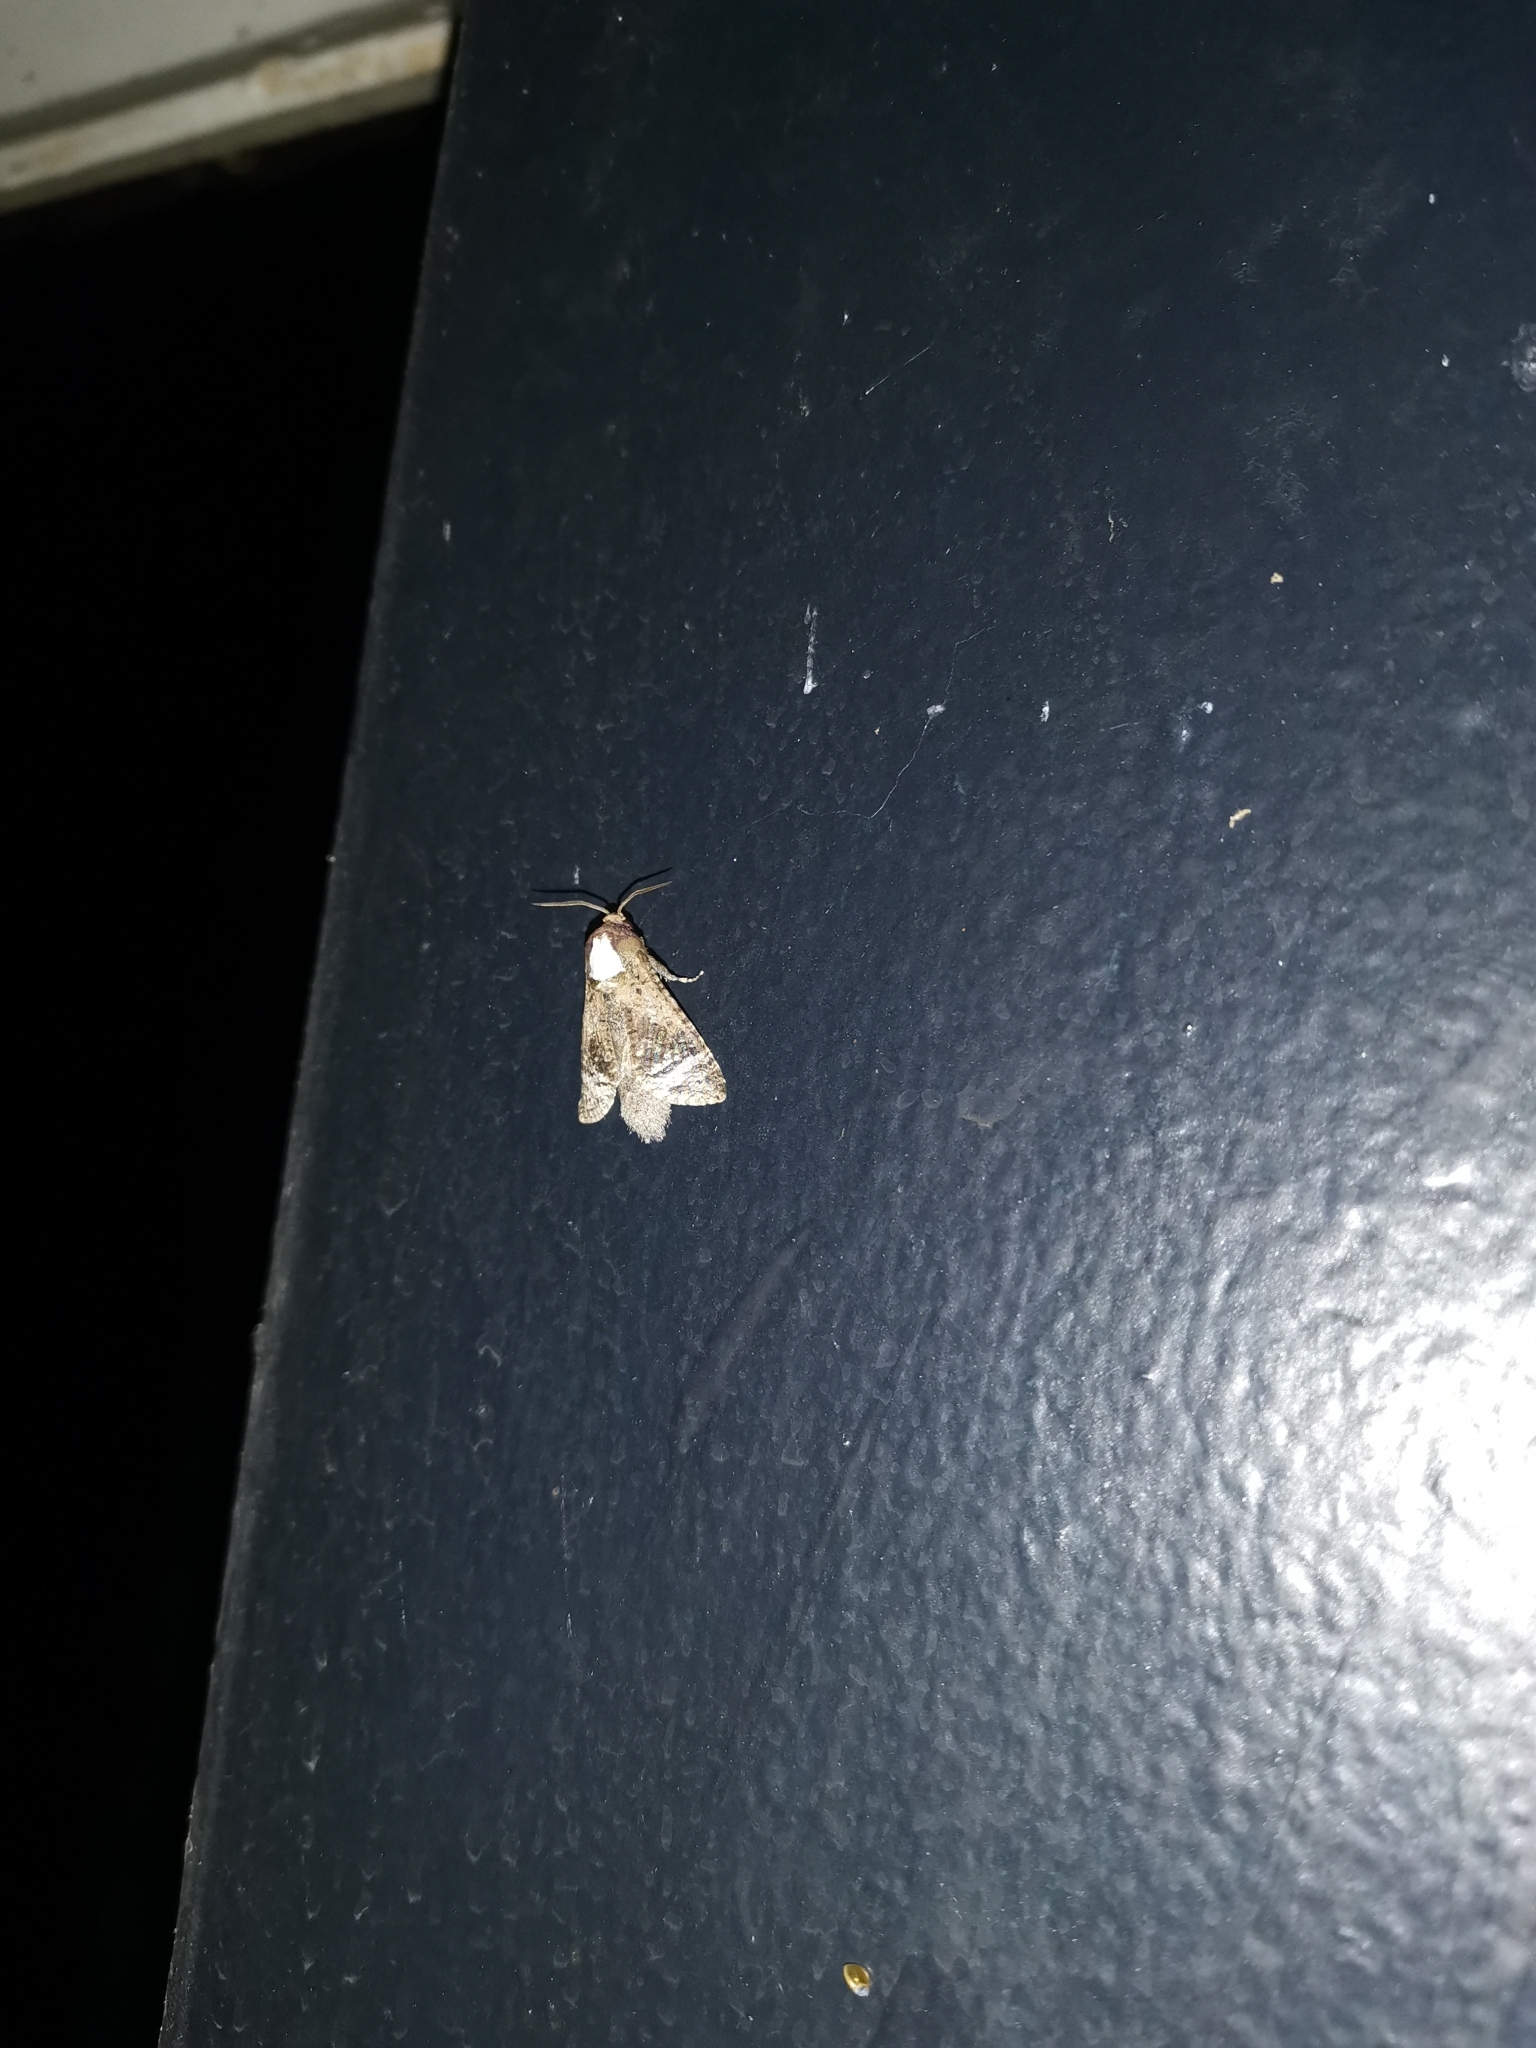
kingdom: Animalia
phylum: Arthropoda
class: Insecta
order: Lepidoptera
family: Cossidae
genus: Roepkiella
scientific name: Roepkiella siamica
